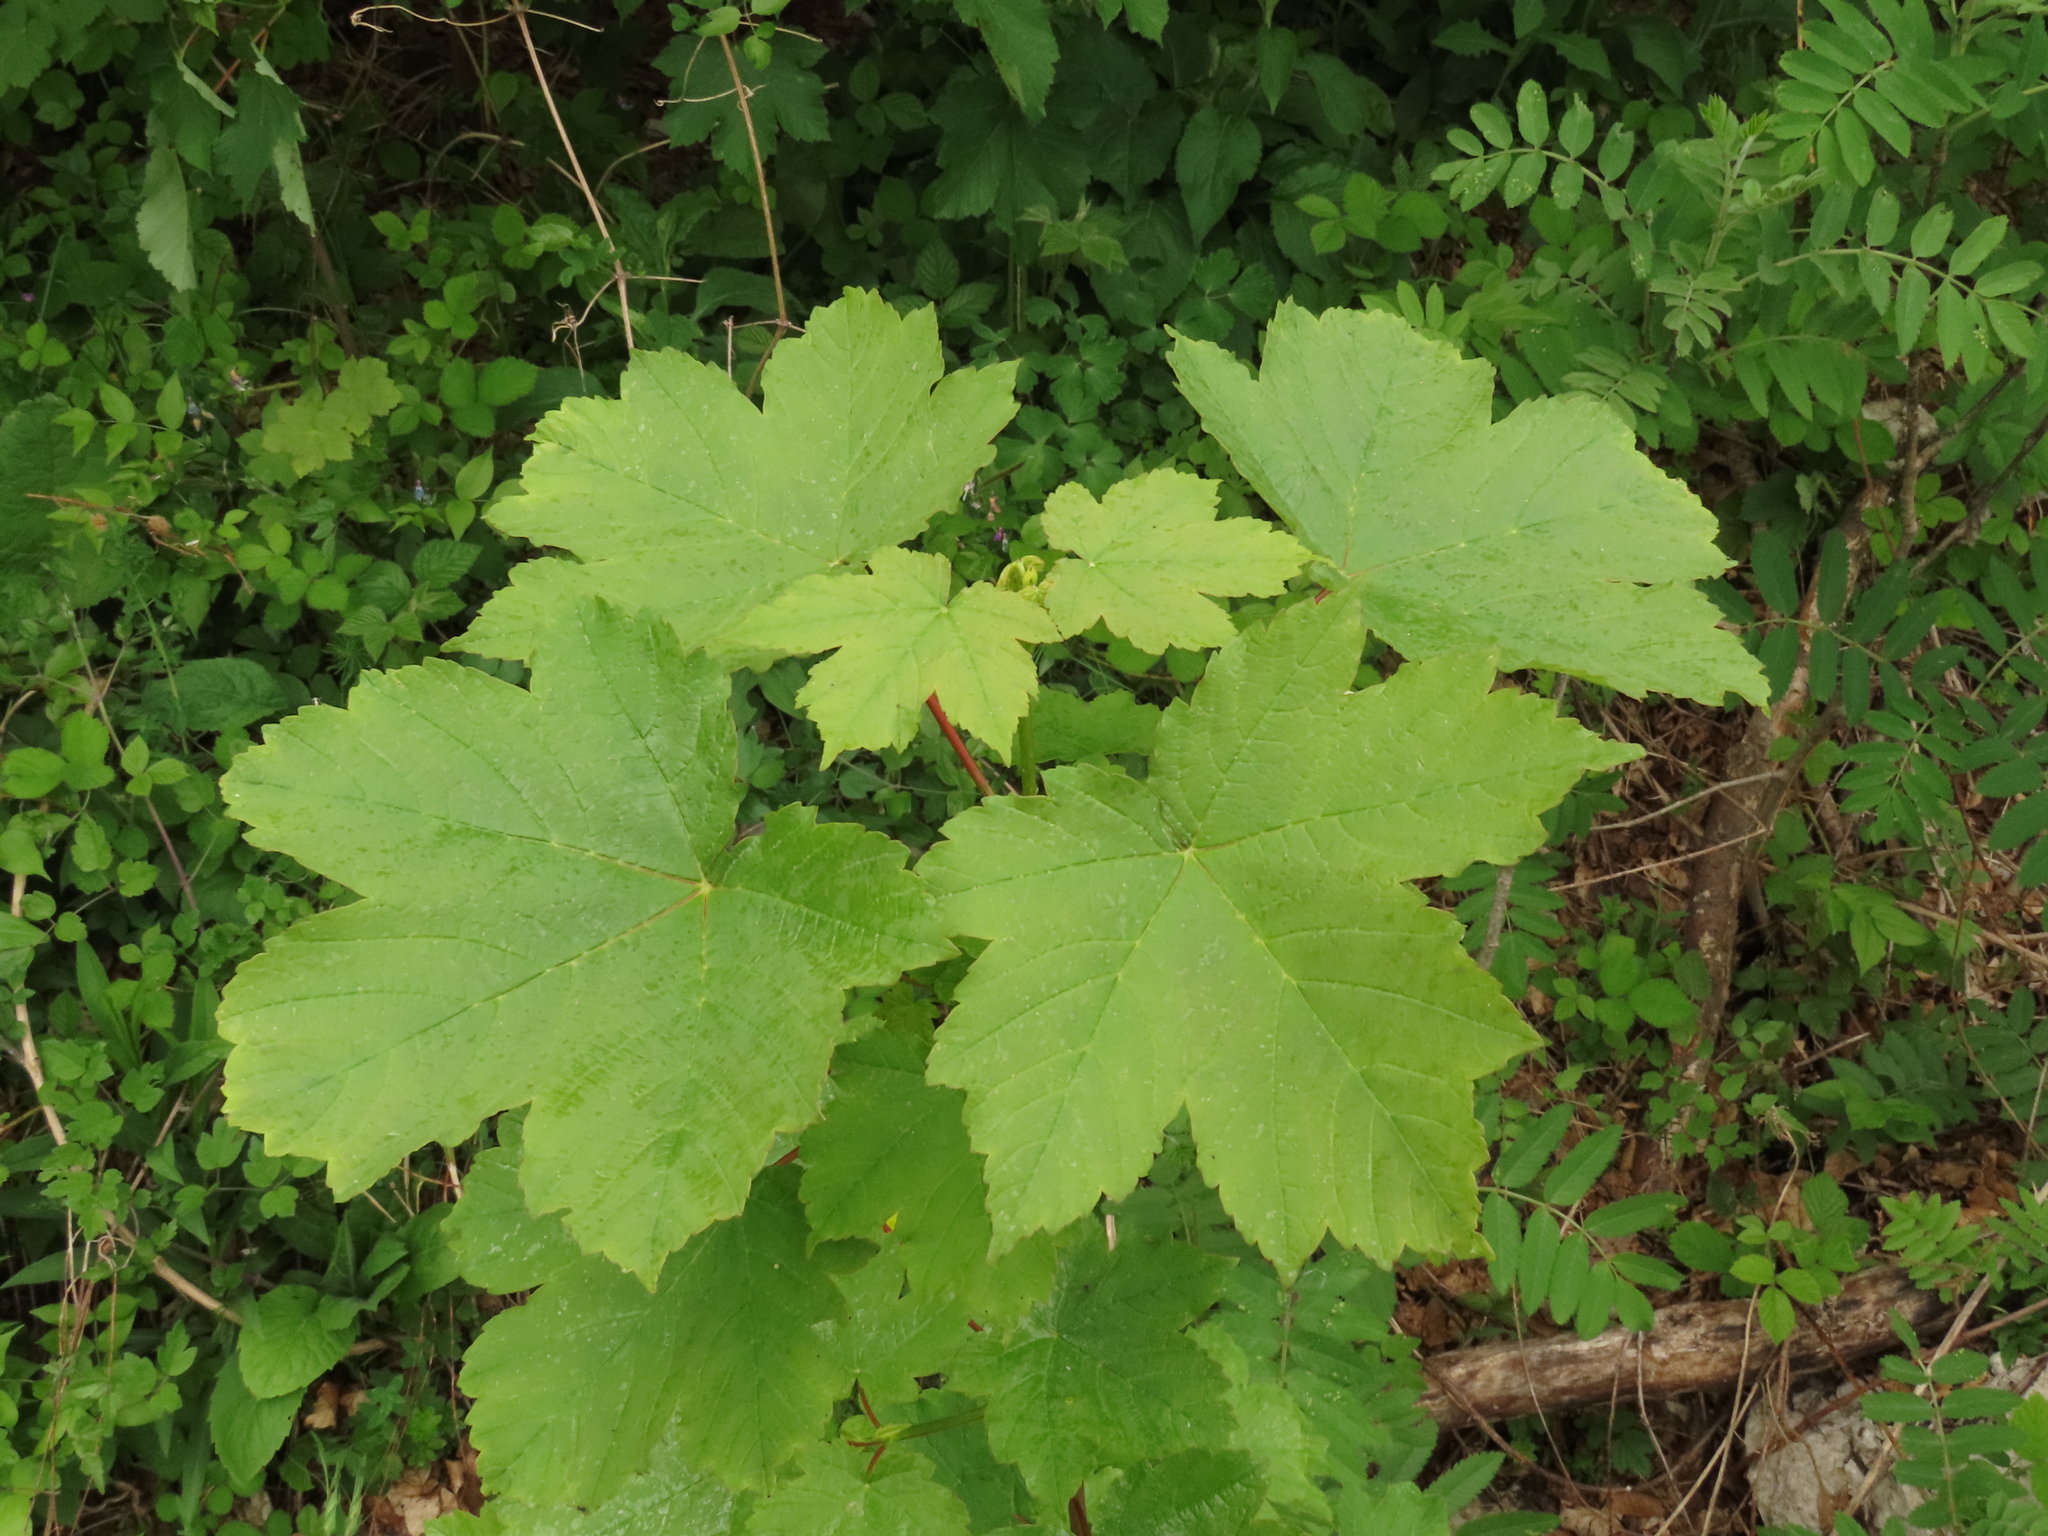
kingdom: Plantae
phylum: Tracheophyta
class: Magnoliopsida
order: Sapindales
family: Sapindaceae
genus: Acer
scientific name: Acer pseudoplatanus
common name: Sycamore
